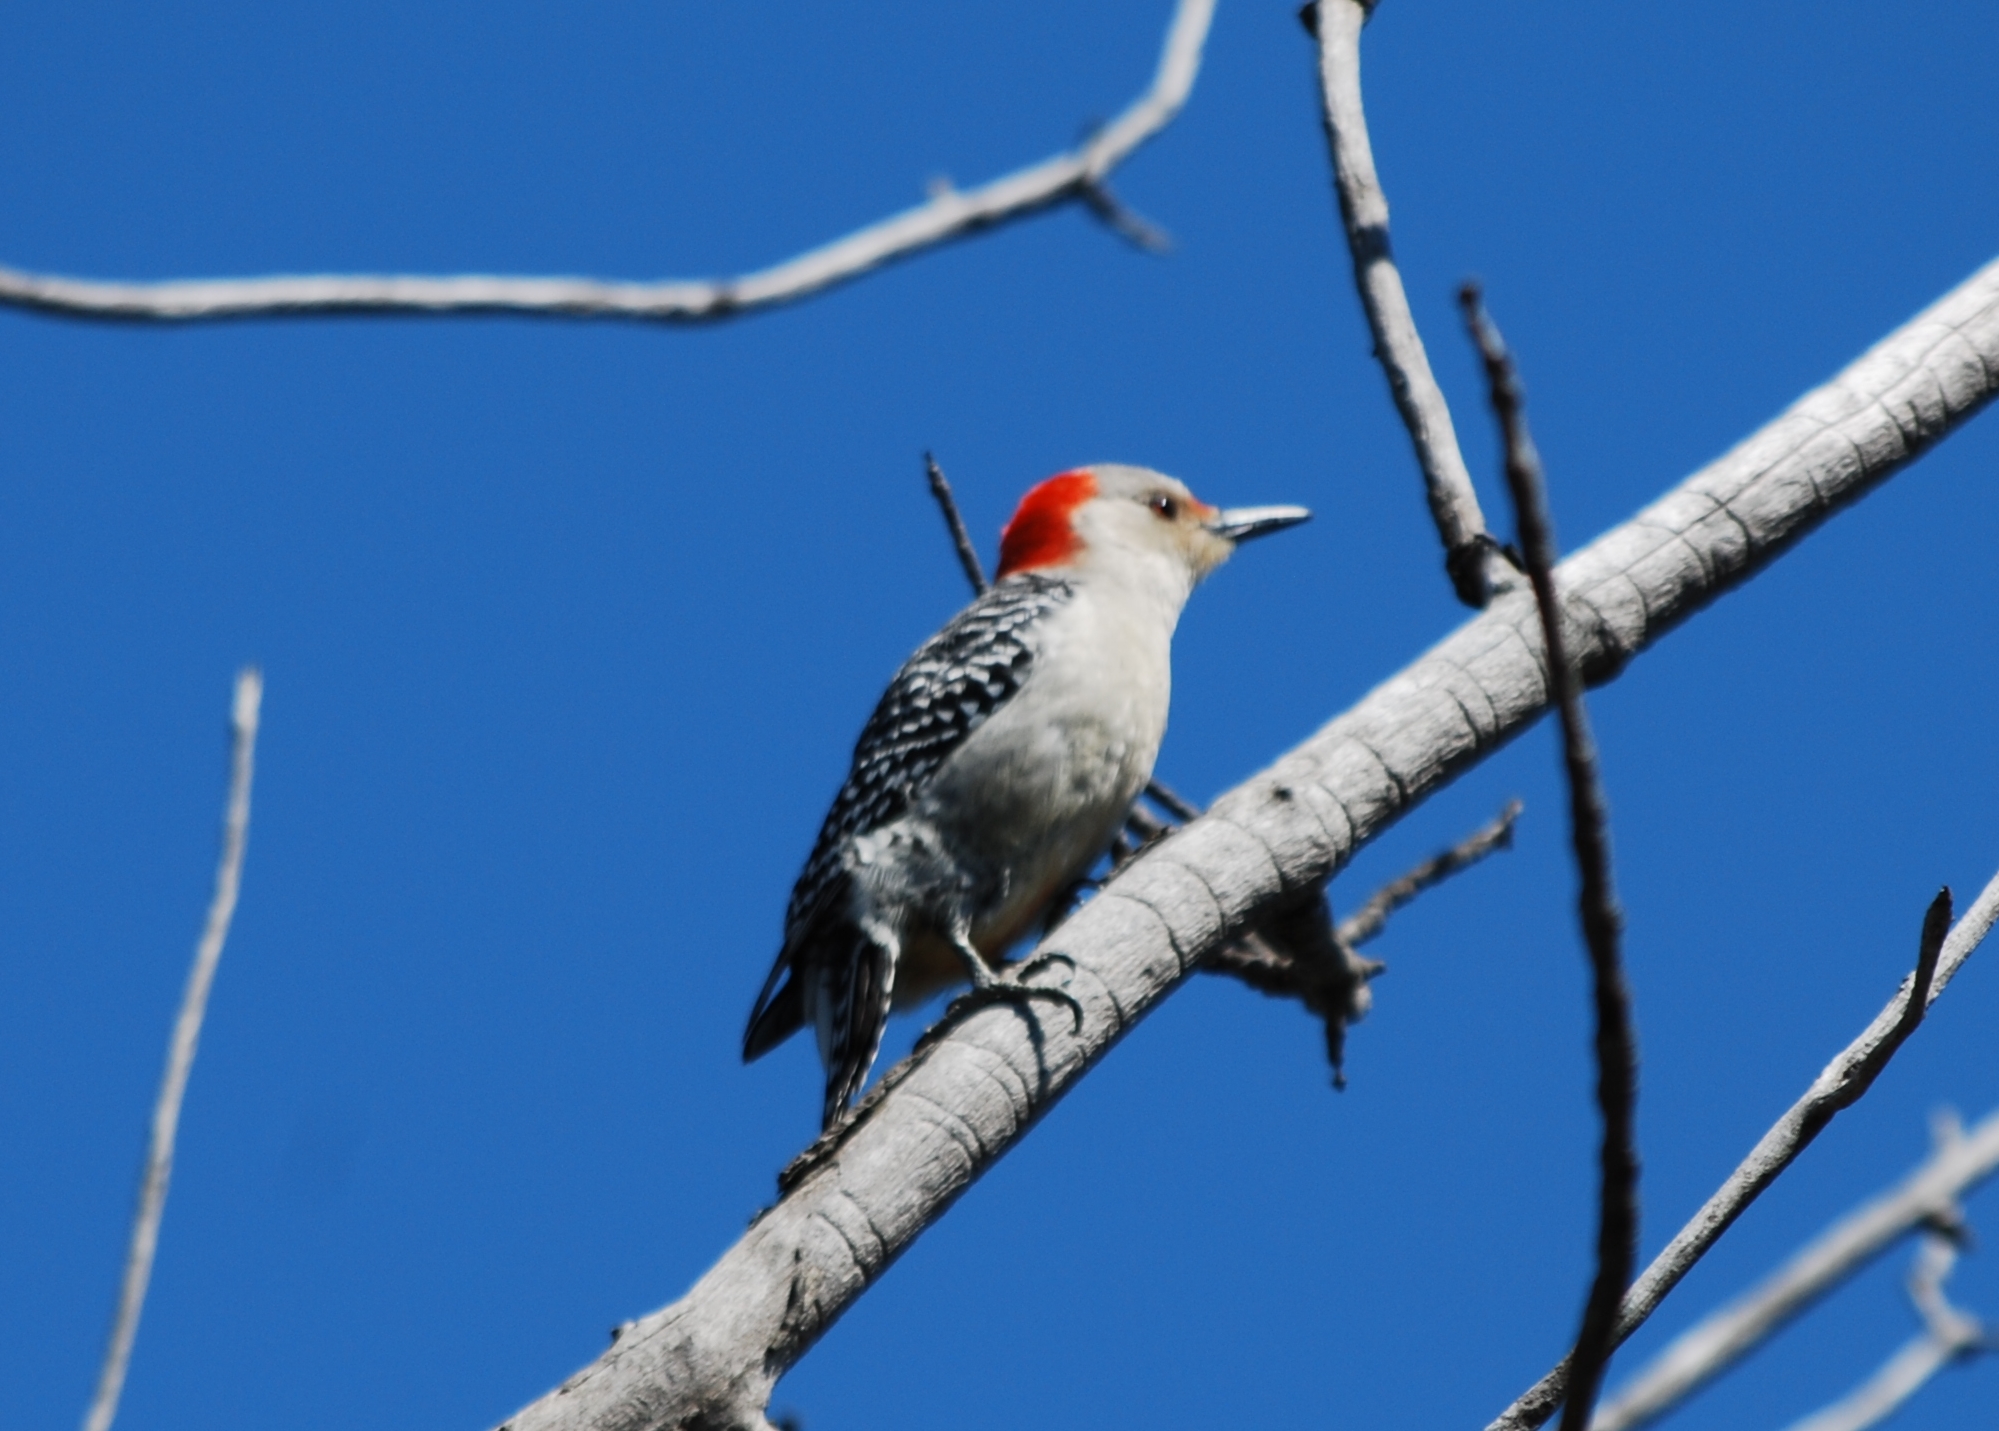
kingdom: Animalia
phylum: Chordata
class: Aves
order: Piciformes
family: Picidae
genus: Melanerpes
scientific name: Melanerpes carolinus
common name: Red-bellied woodpecker
